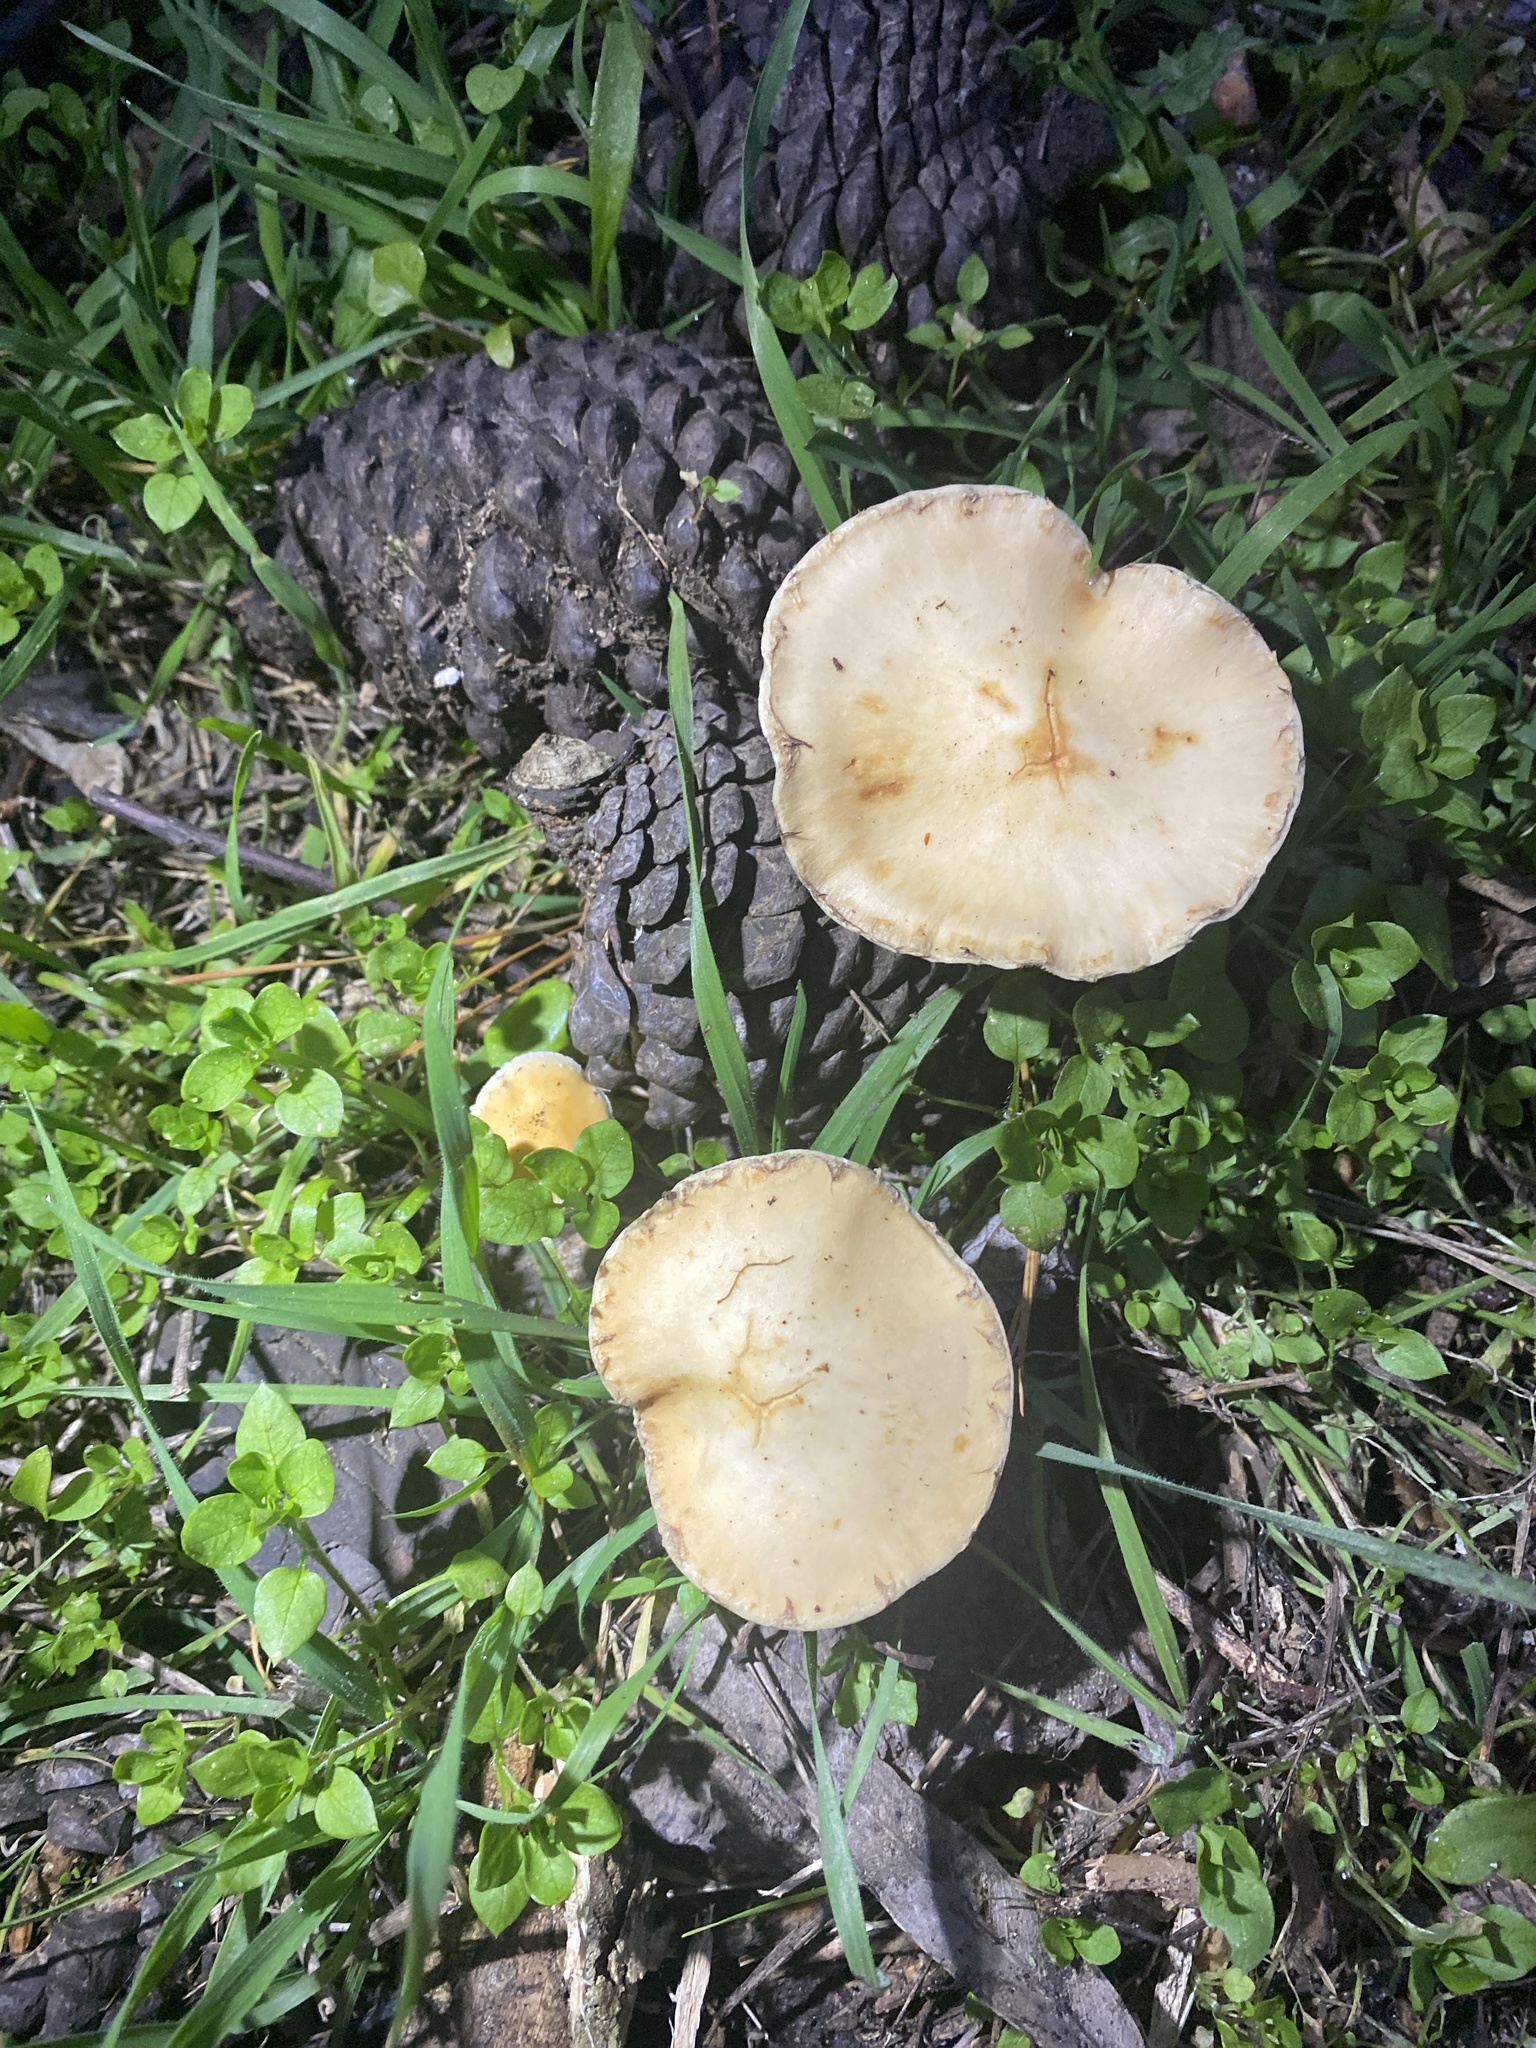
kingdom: Fungi
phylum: Basidiomycota
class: Agaricomycetes
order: Agaricales
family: Strophariaceae
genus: Leratiomyces
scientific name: Leratiomyces percevalii
